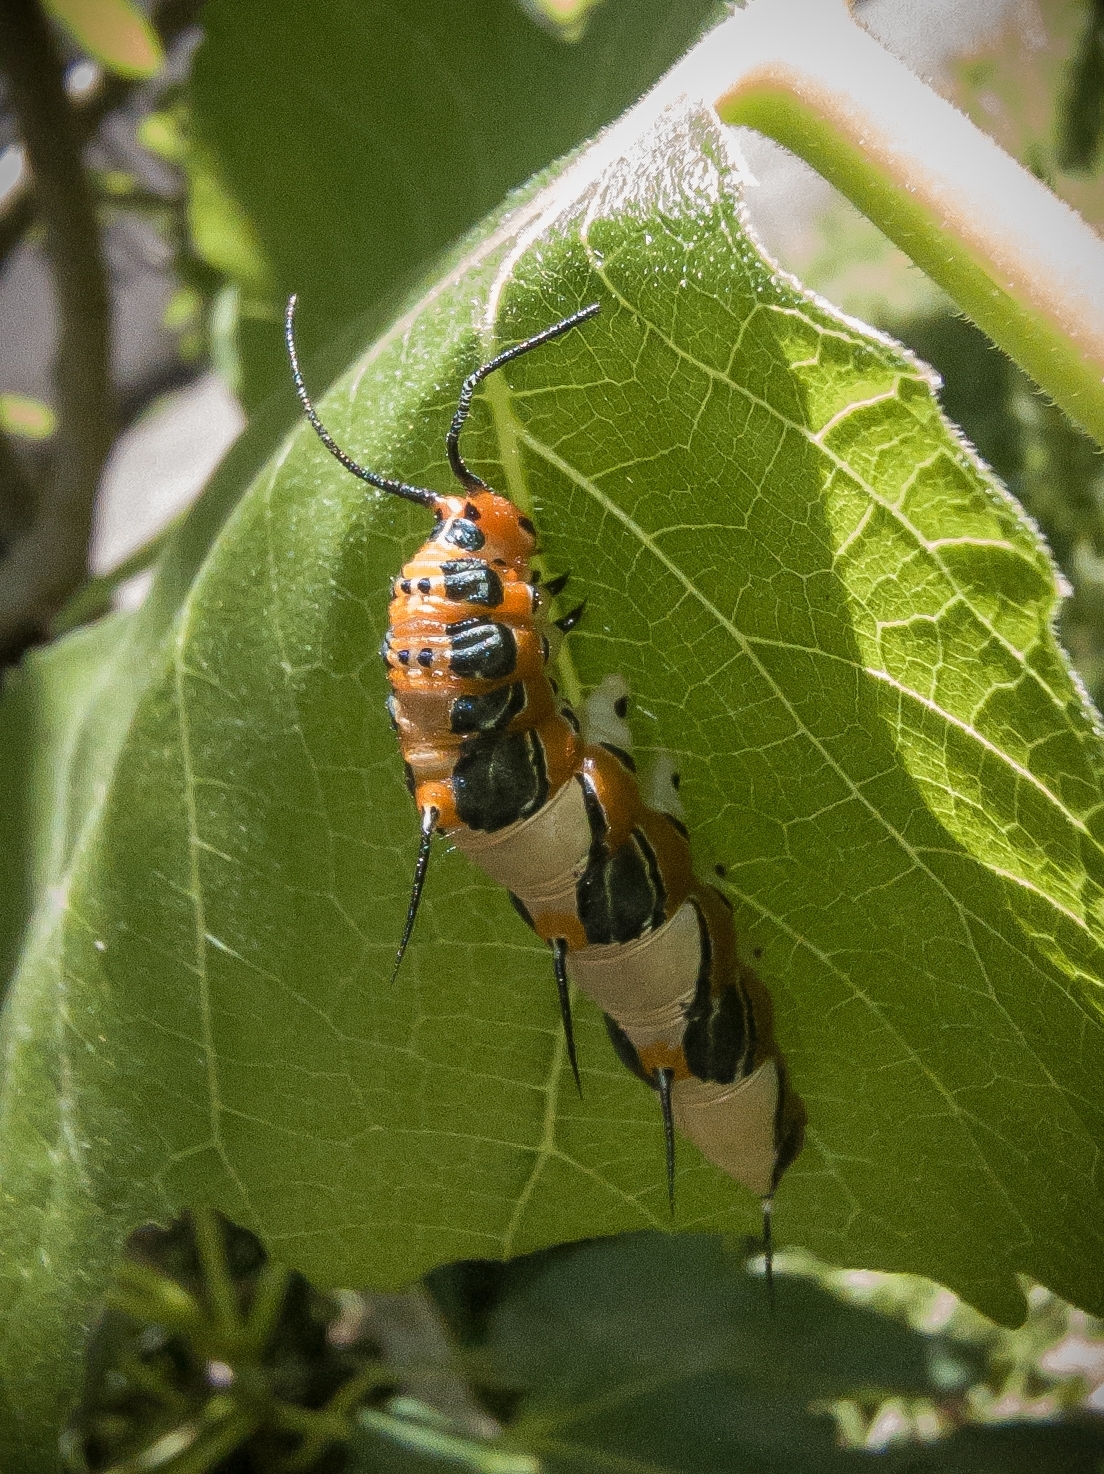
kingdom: Animalia
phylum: Arthropoda
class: Insecta
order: Lepidoptera
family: Nymphalidae
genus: Marpesia
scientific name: Marpesia petreus
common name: Red dagger wing
